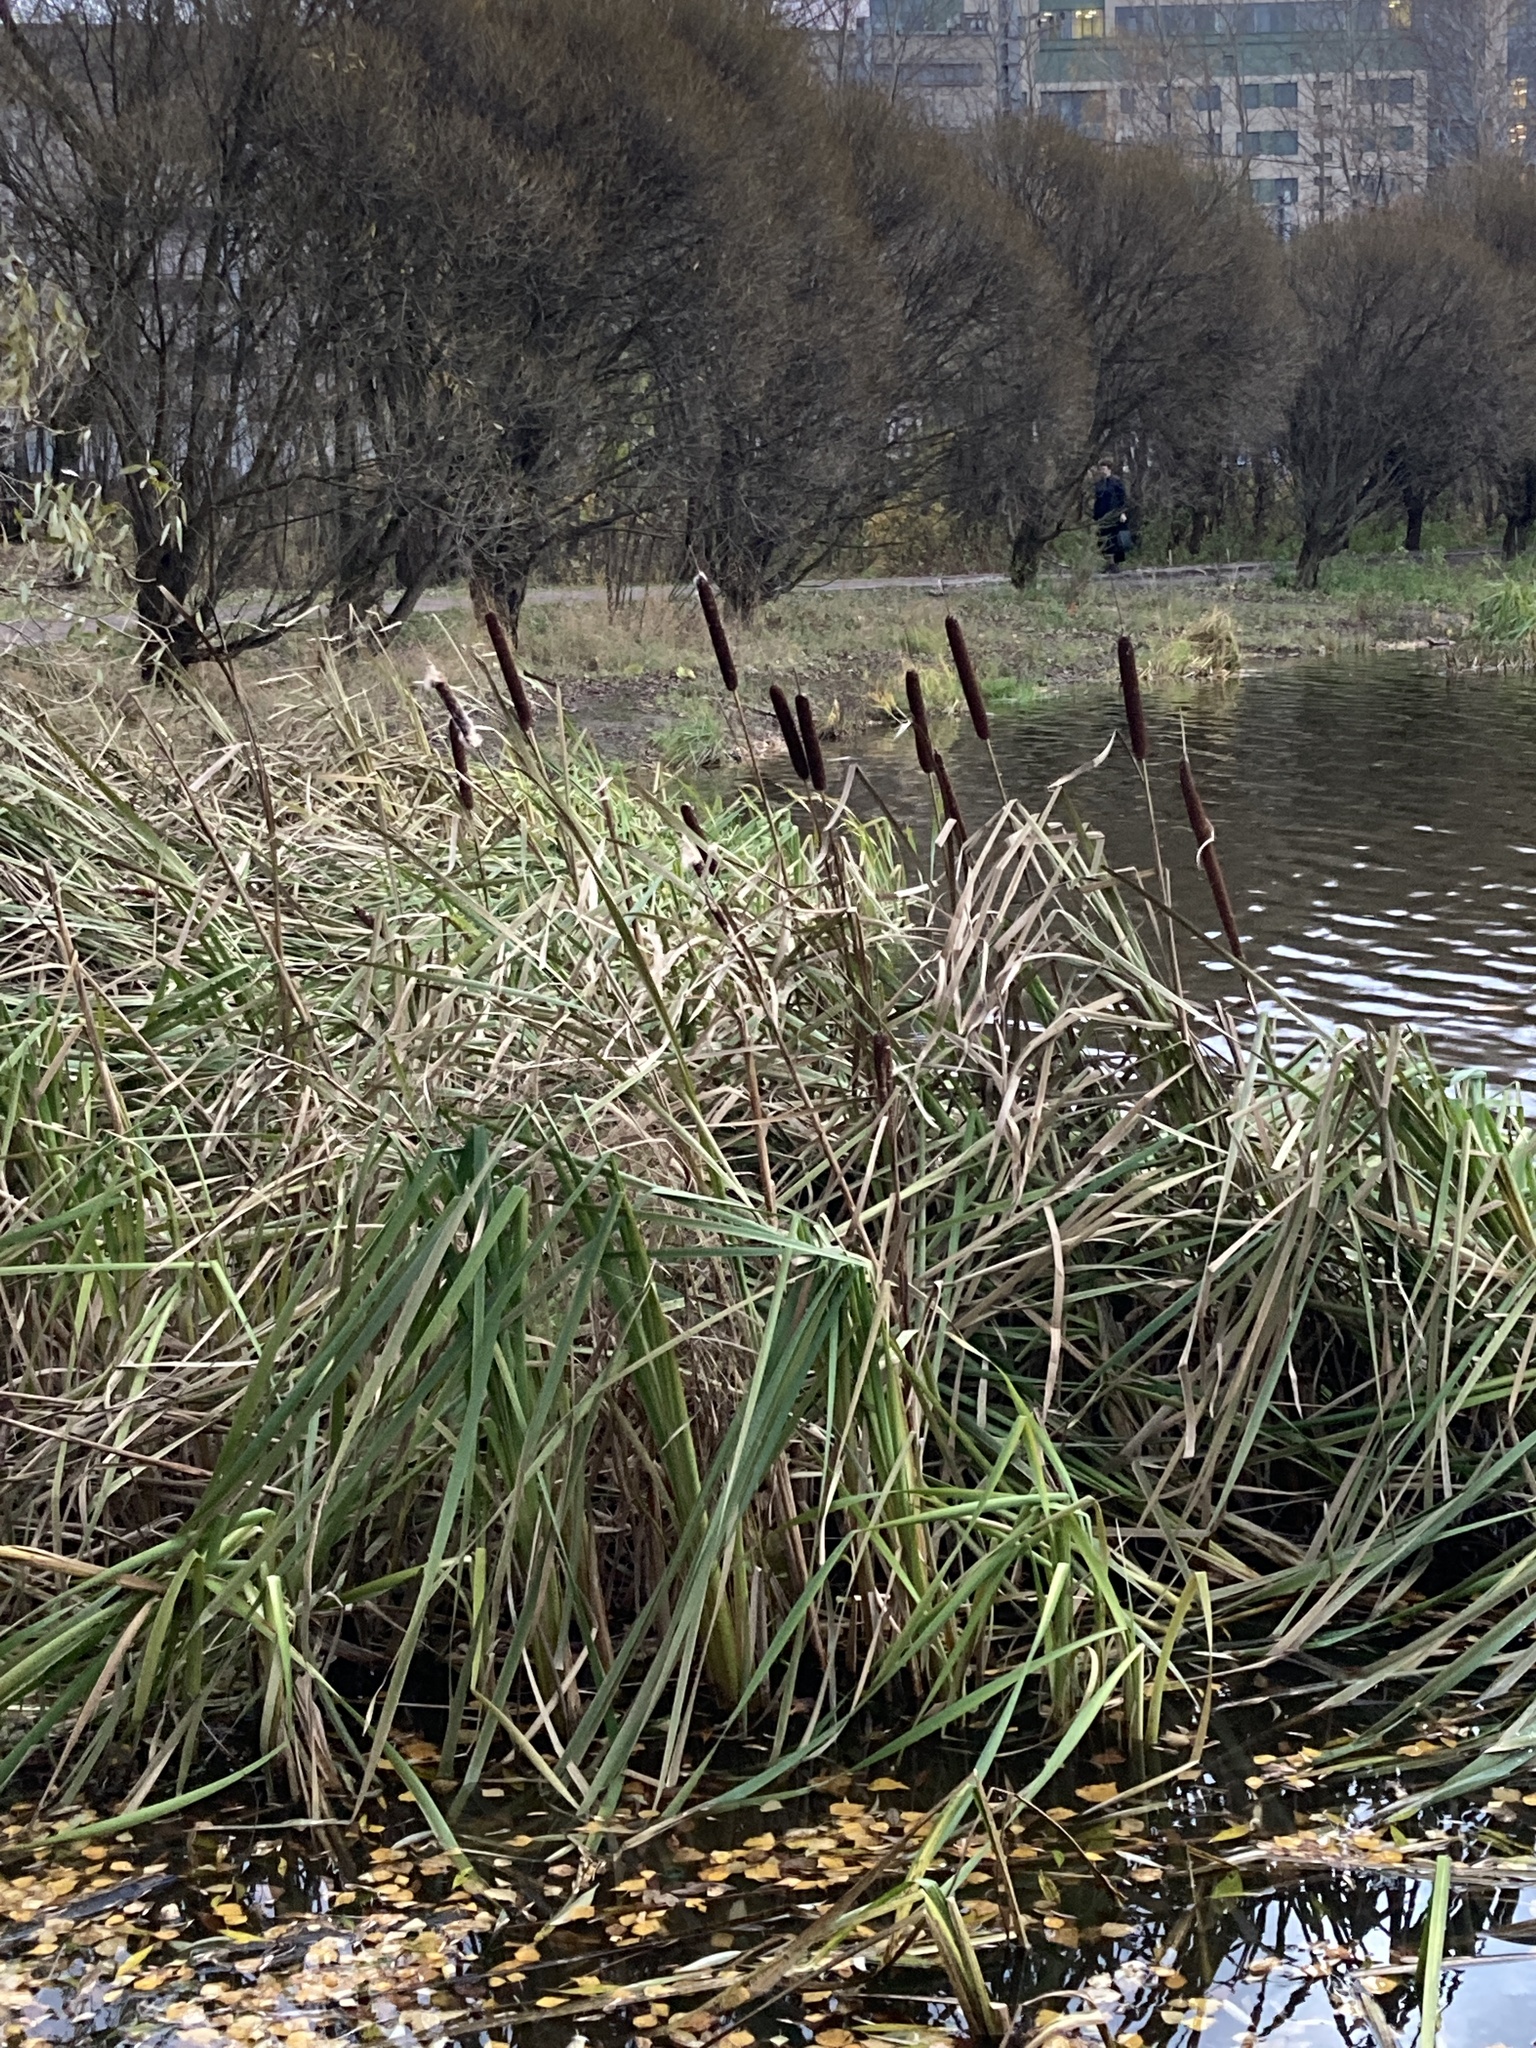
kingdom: Plantae
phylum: Tracheophyta
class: Liliopsida
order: Poales
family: Typhaceae
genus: Typha
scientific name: Typha latifolia
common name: Broadleaf cattail
